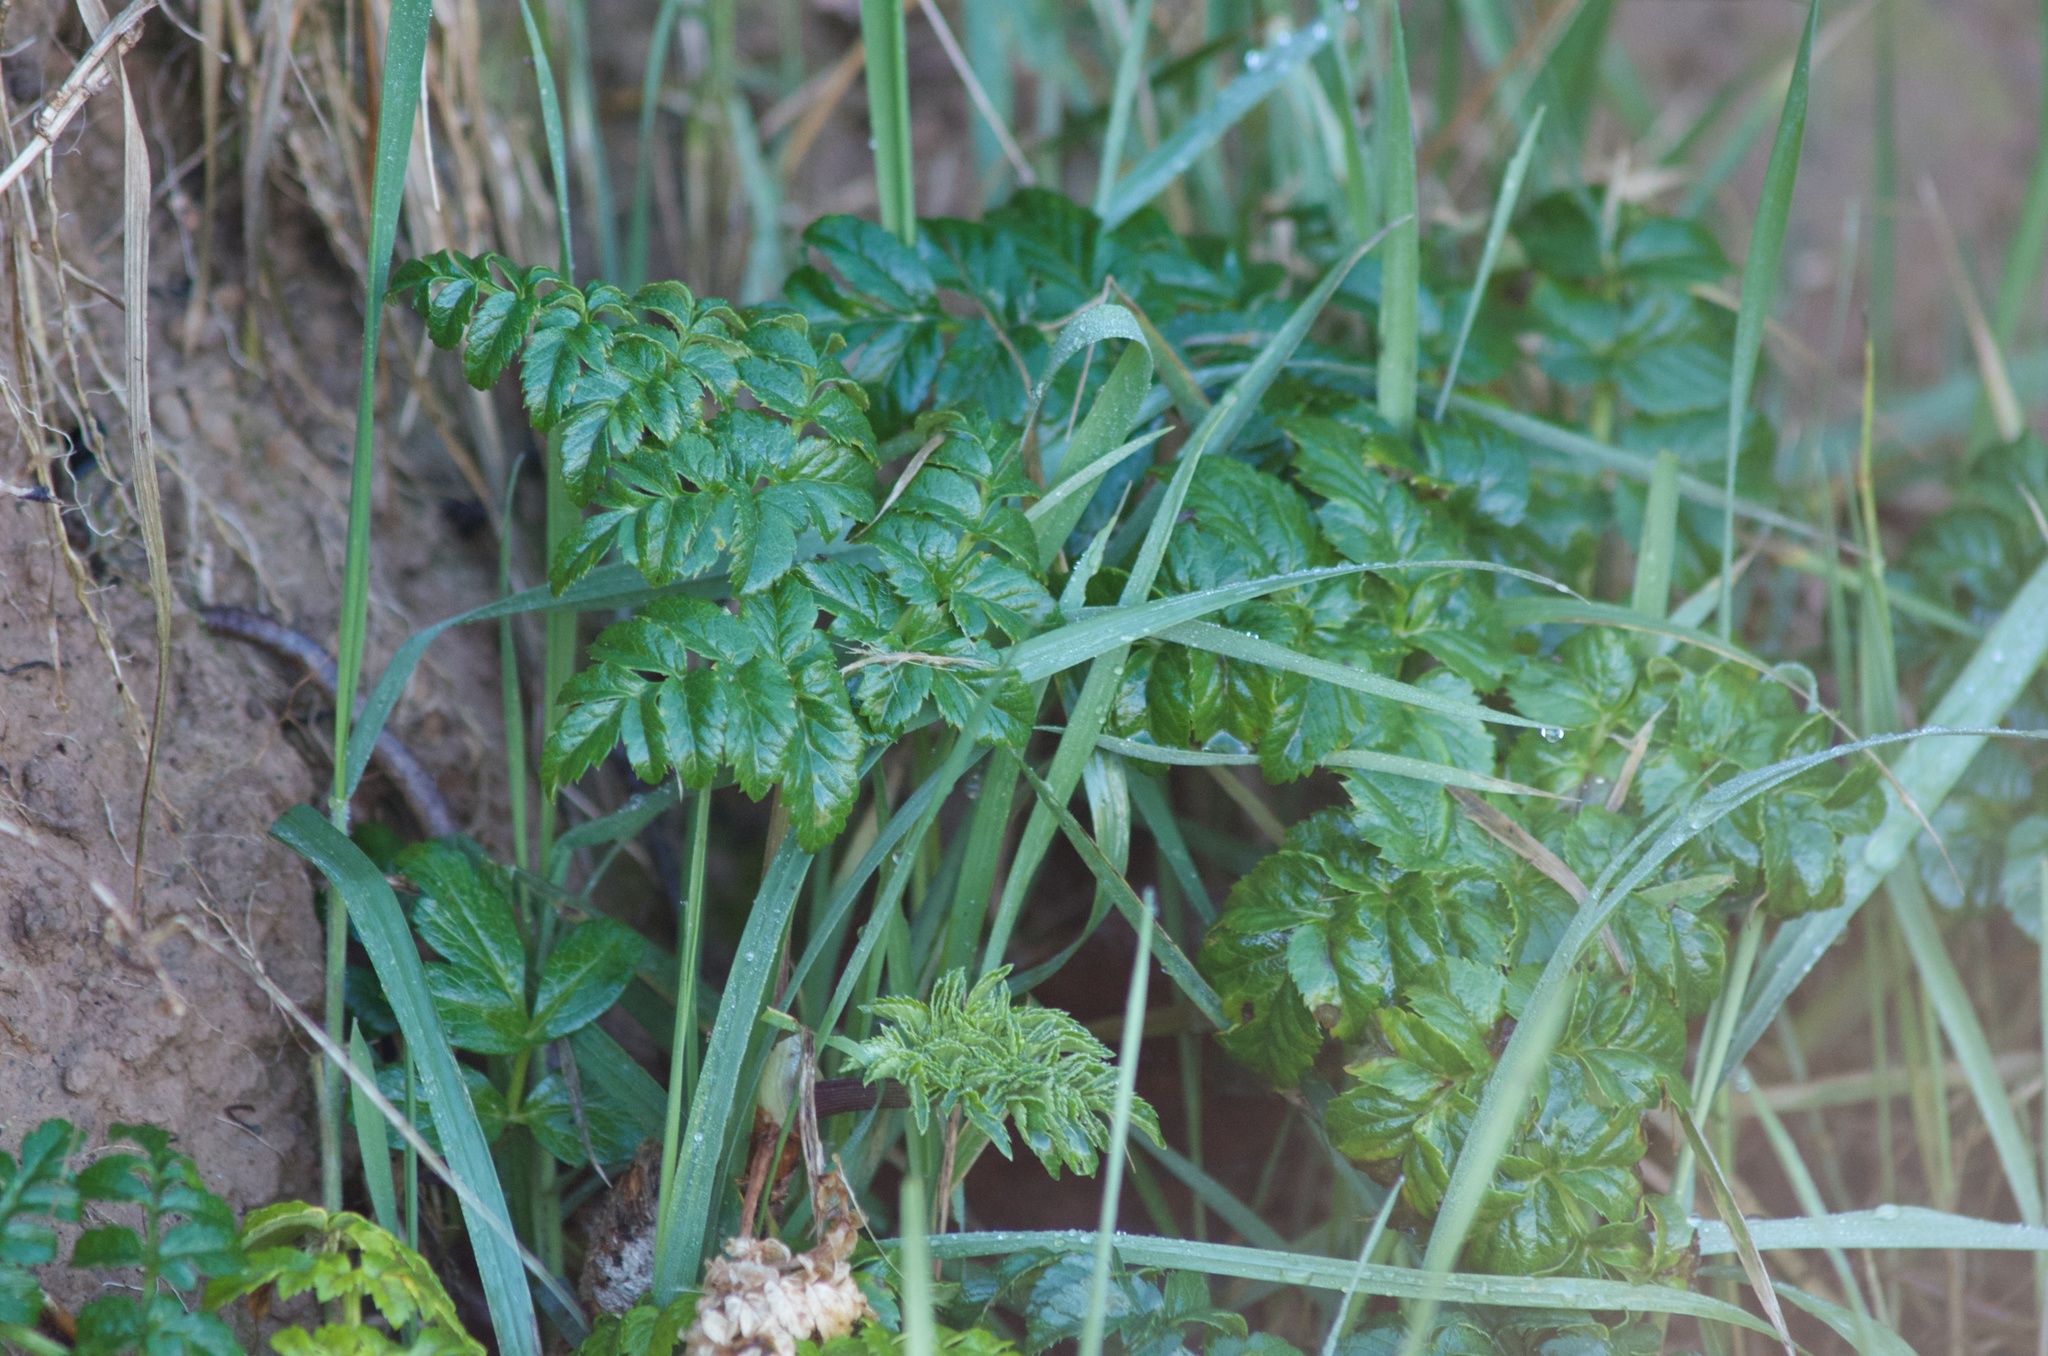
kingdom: Plantae
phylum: Tracheophyta
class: Magnoliopsida
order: Apiales
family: Apiaceae
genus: Angelica
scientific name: Angelica pachycarpa
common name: Portuguese angelica
